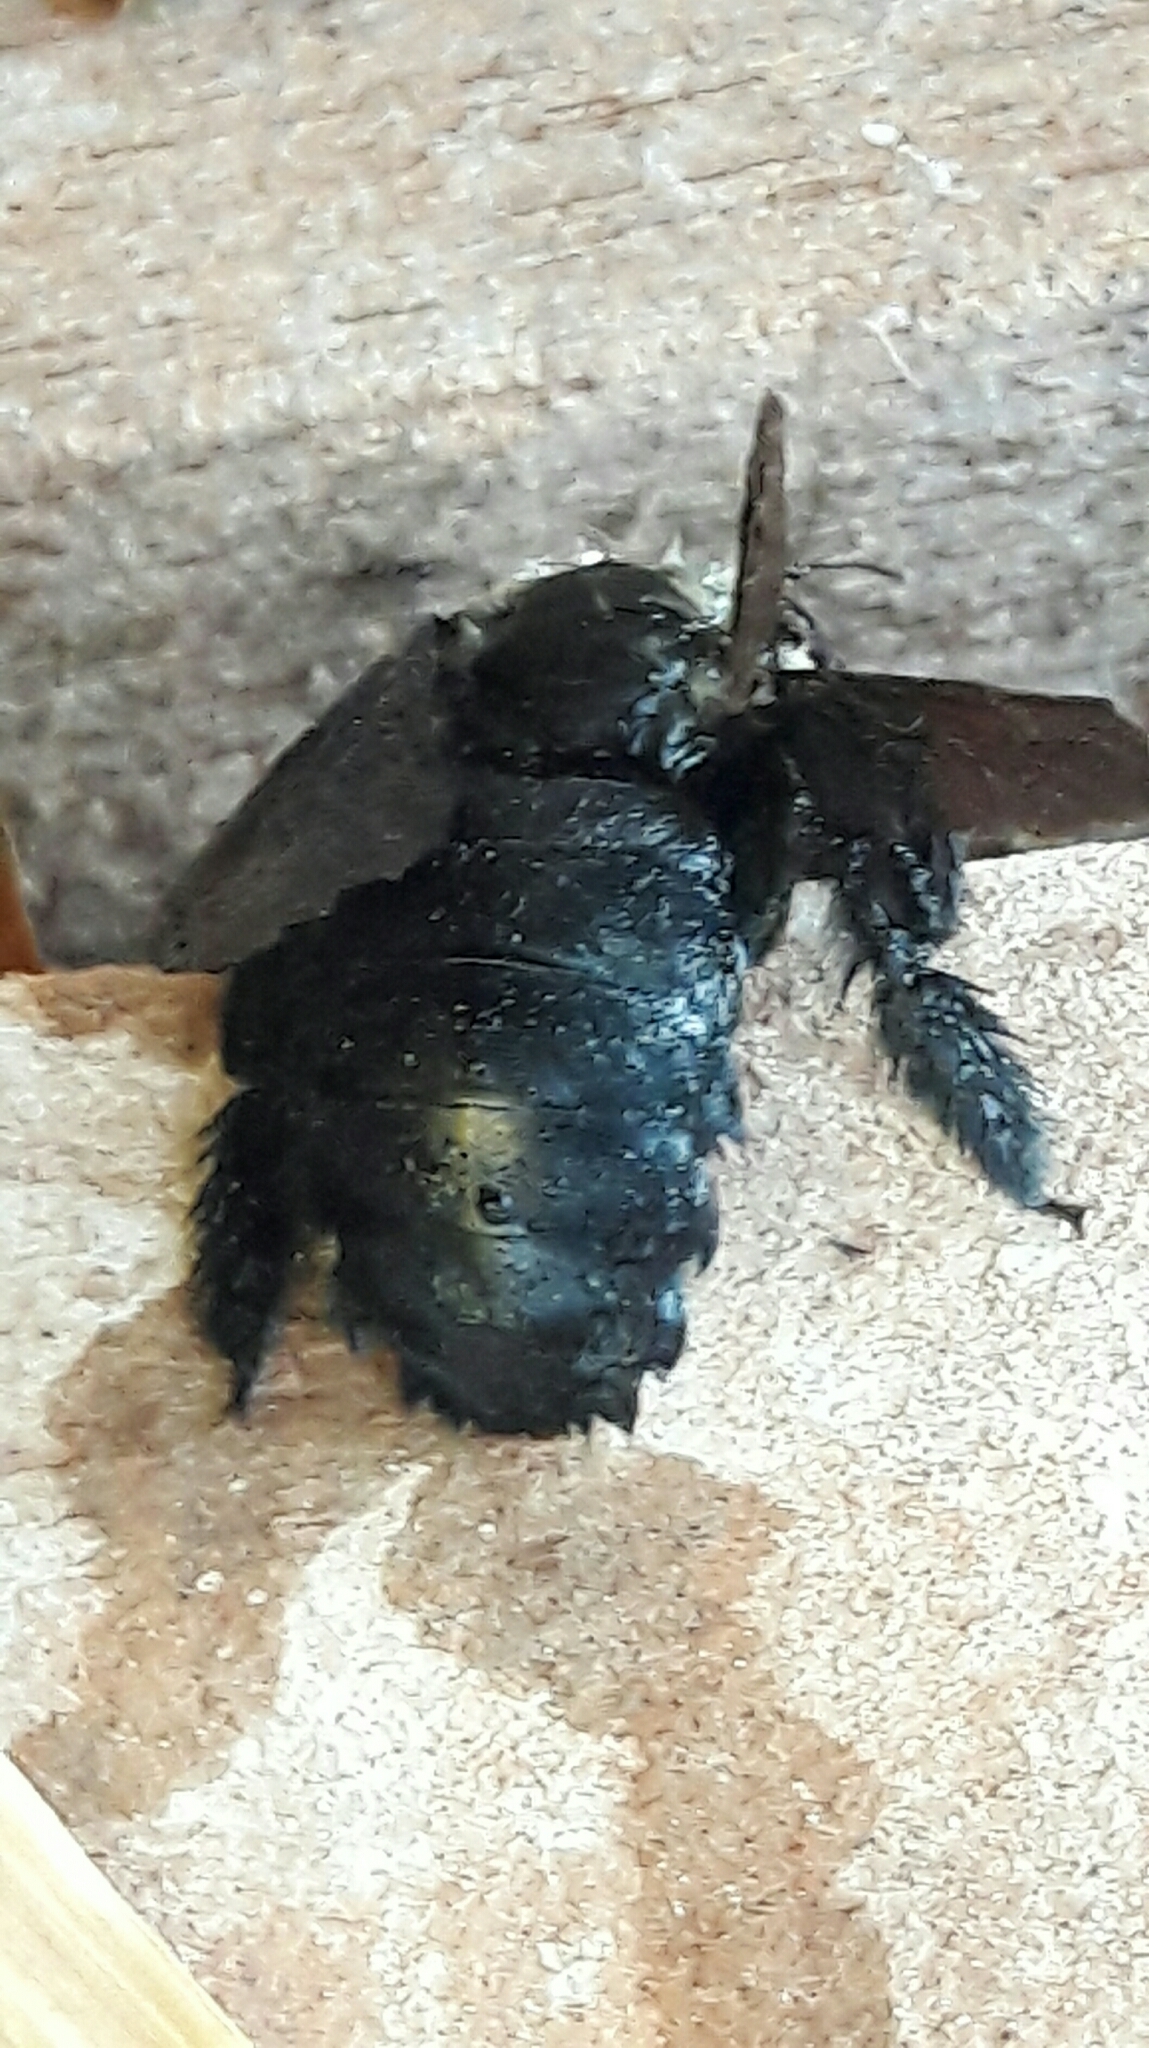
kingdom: Animalia
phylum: Arthropoda
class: Insecta
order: Hymenoptera
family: Apidae
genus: Xylocopa
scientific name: Xylocopa grisescens
